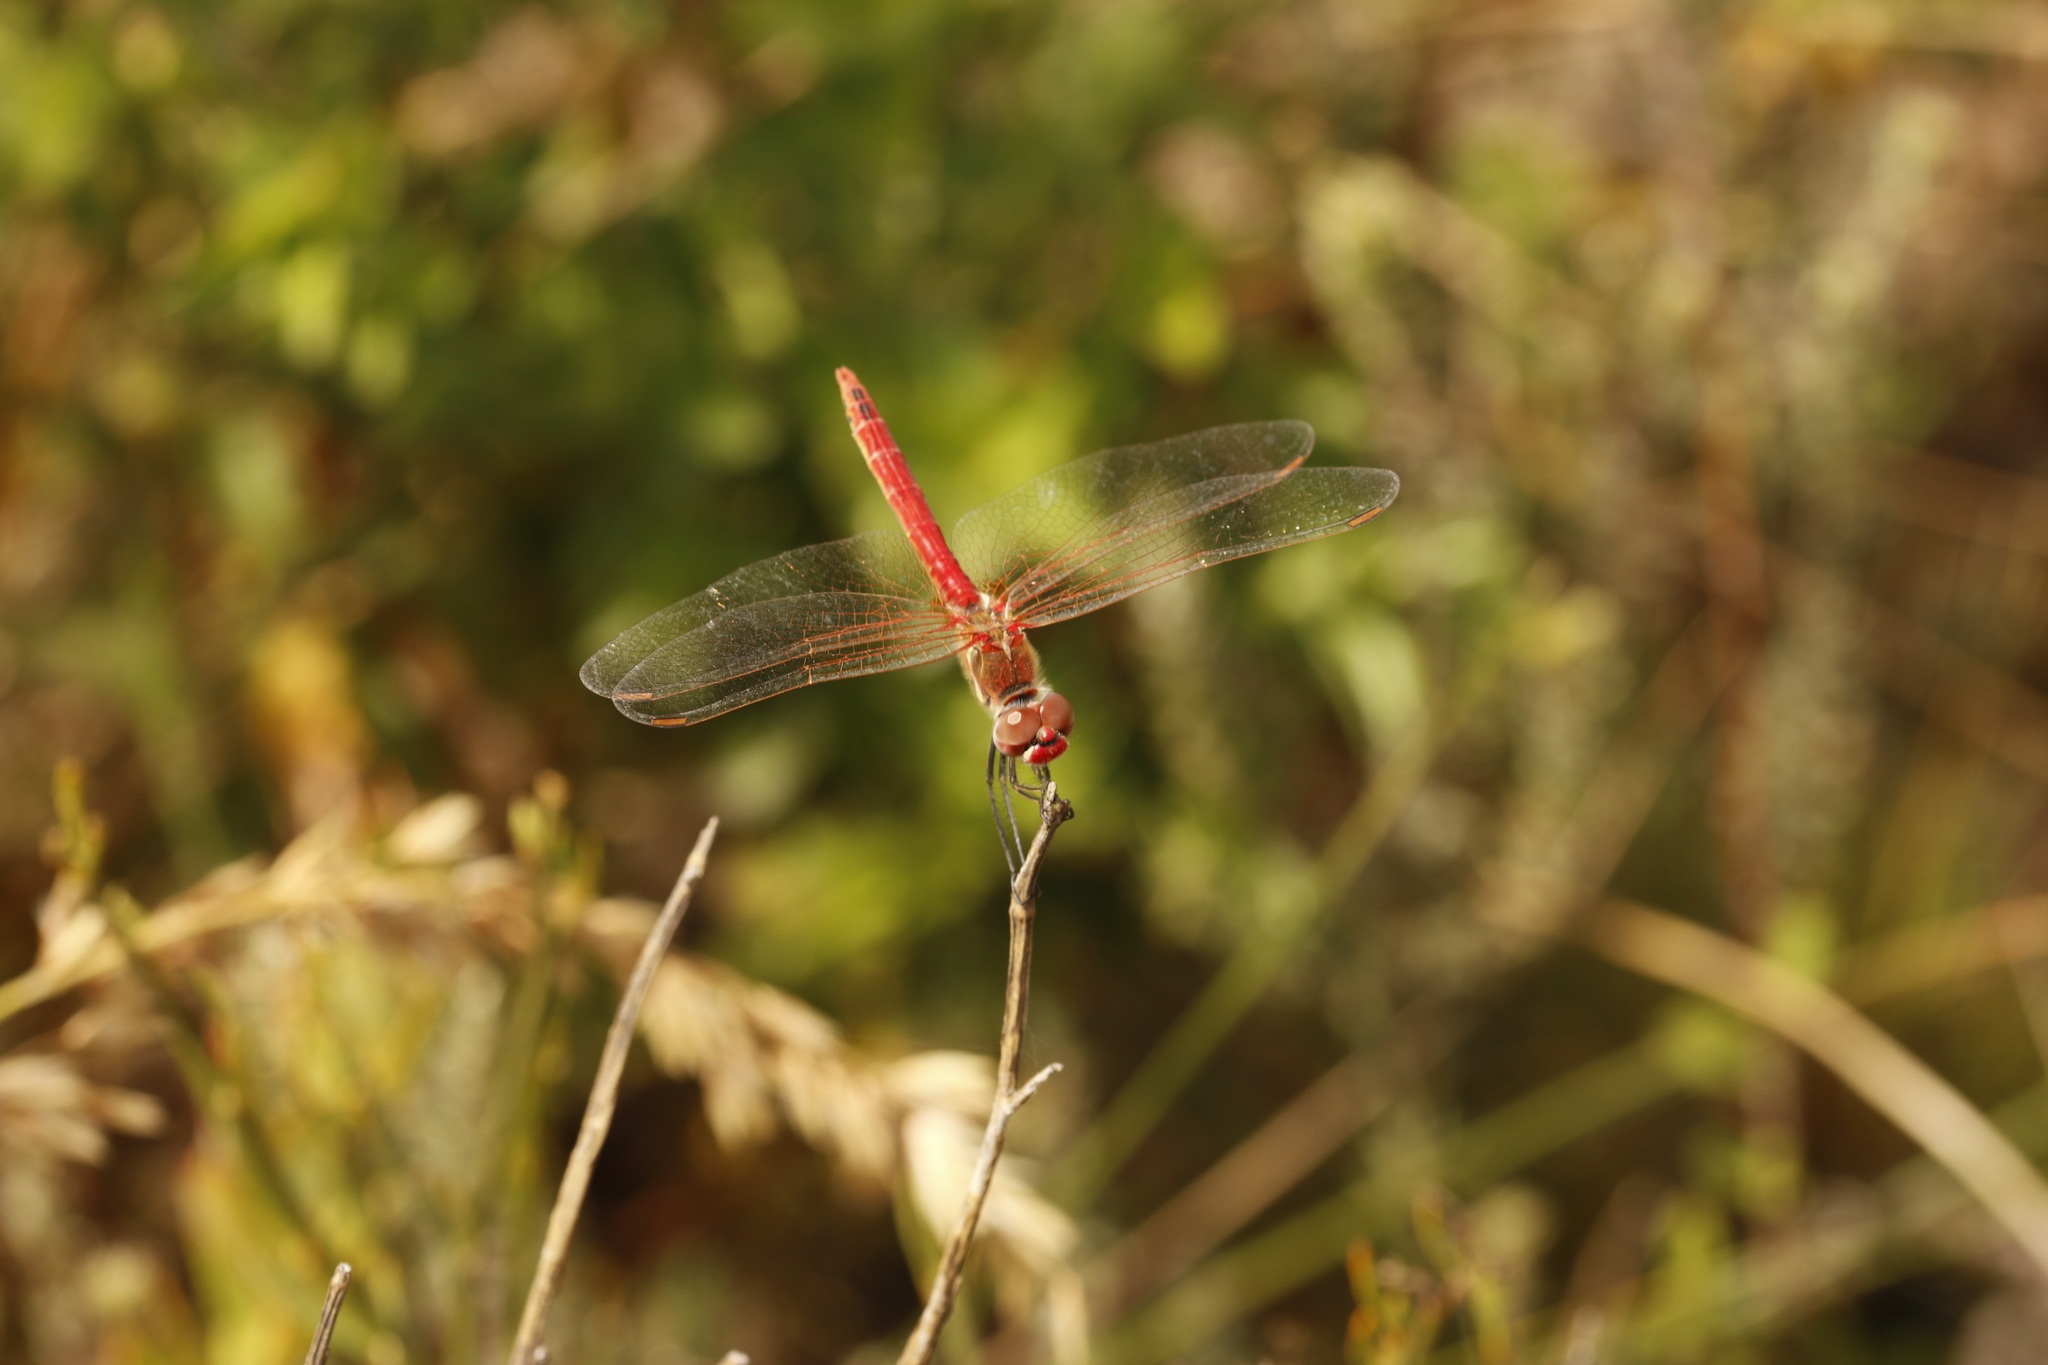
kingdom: Animalia
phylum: Arthropoda
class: Insecta
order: Odonata
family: Libellulidae
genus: Sympetrum
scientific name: Sympetrum fonscolombii
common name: Red-veined darter
